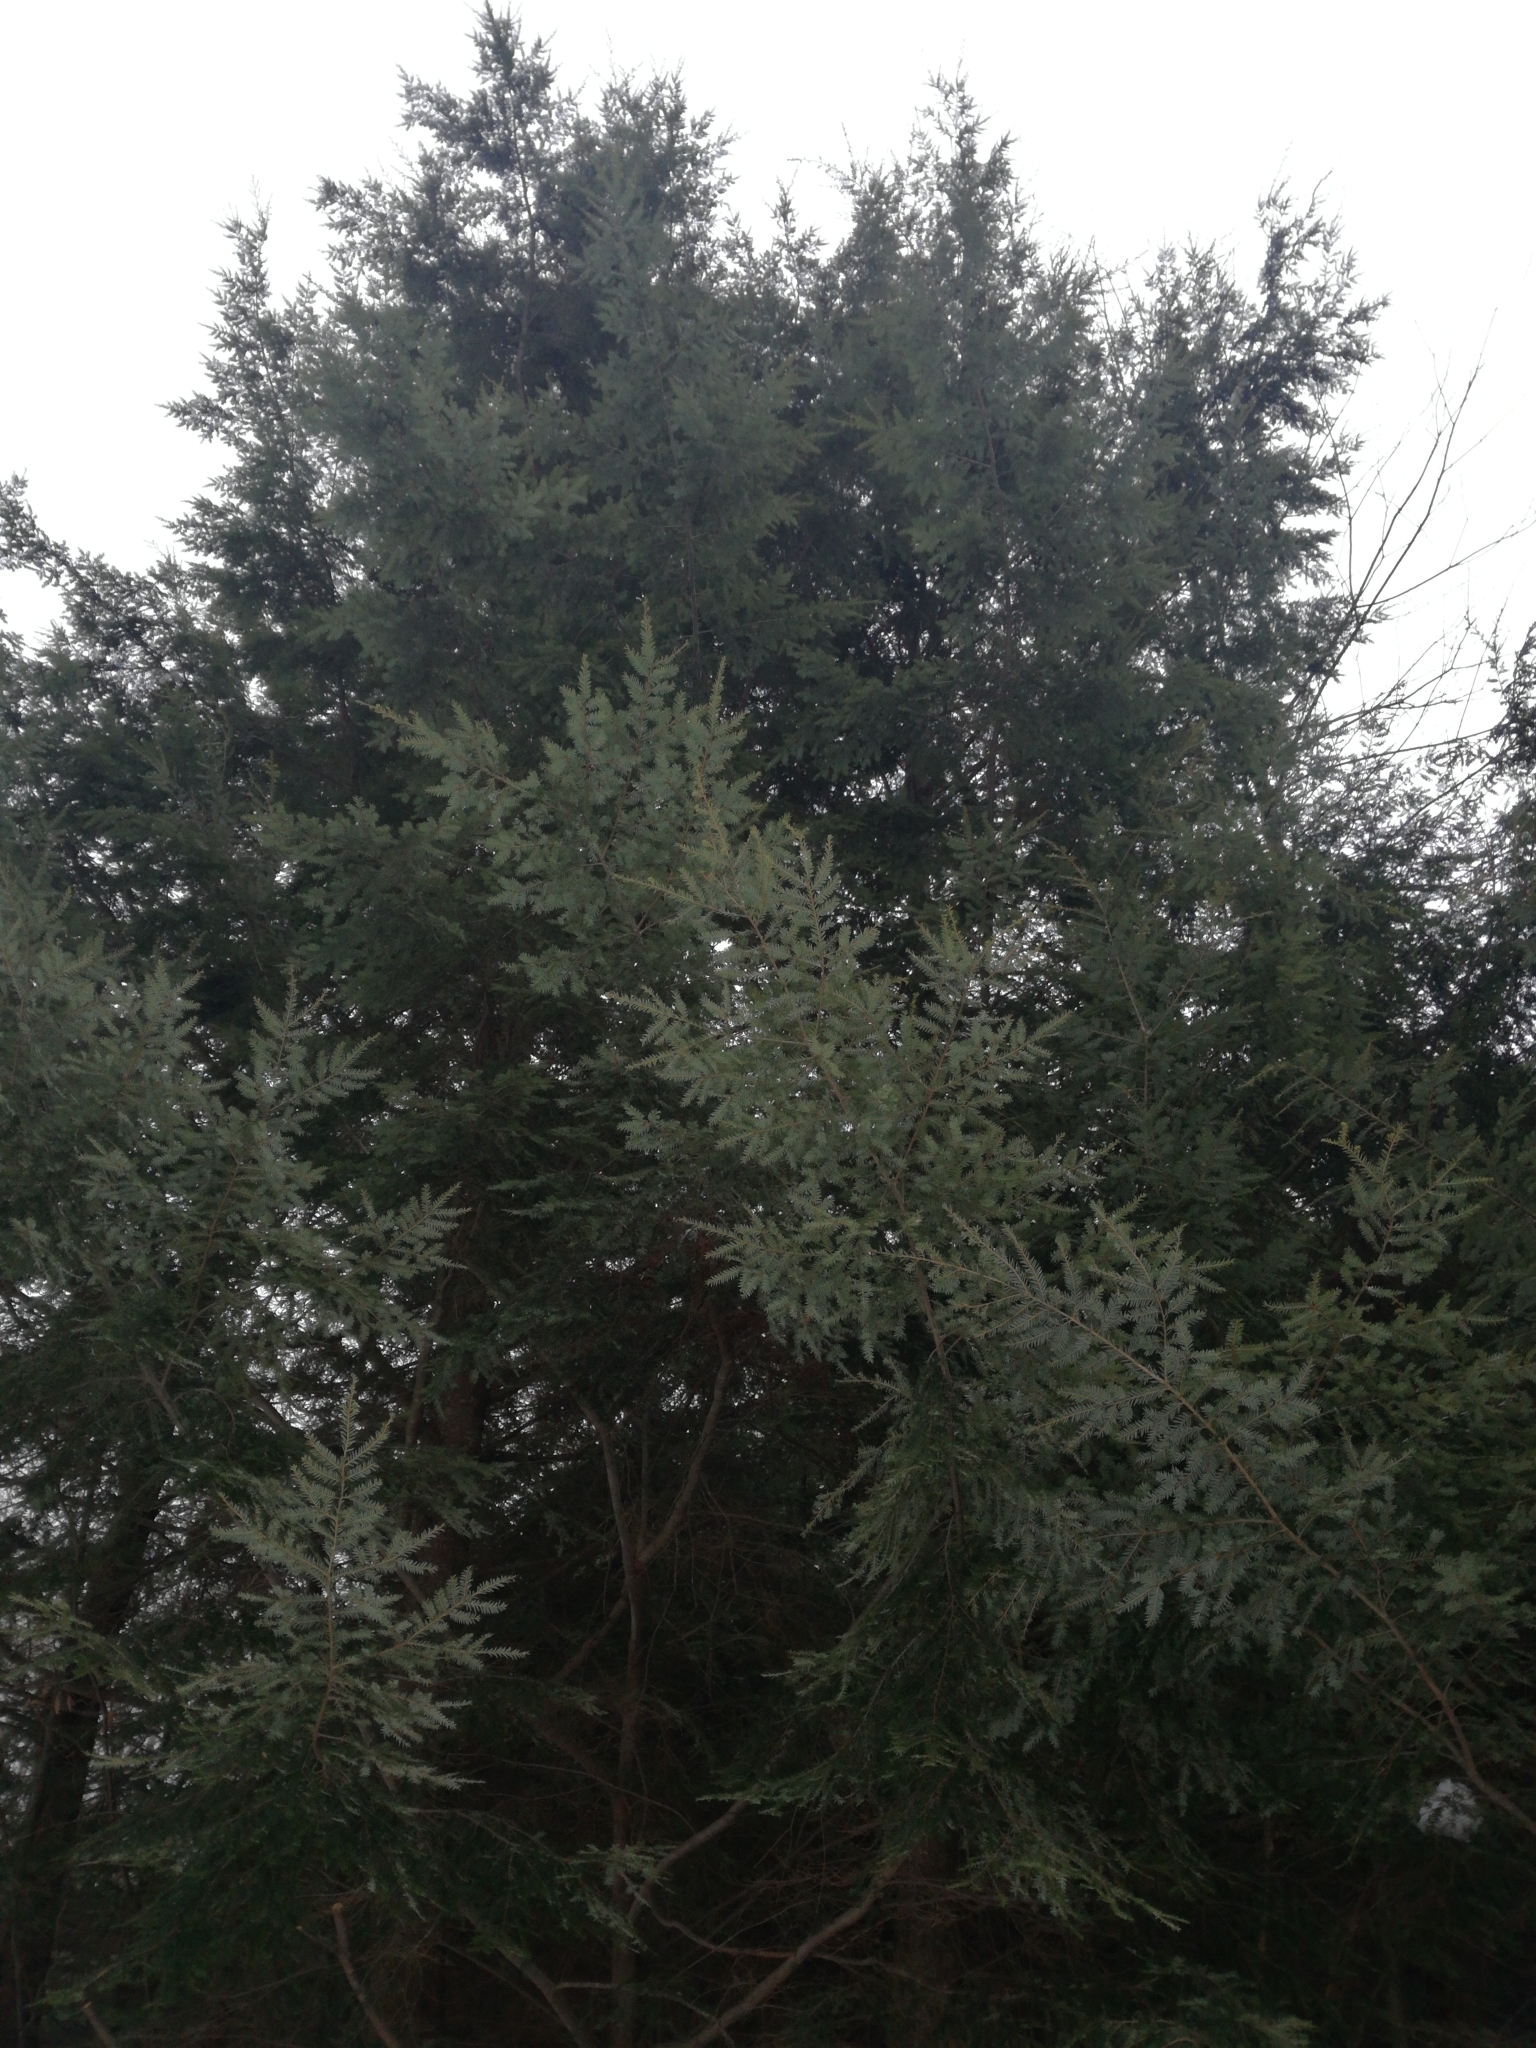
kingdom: Plantae
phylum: Tracheophyta
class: Pinopsida
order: Pinales
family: Pinaceae
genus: Tsuga
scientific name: Tsuga canadensis
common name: Eastern hemlock
